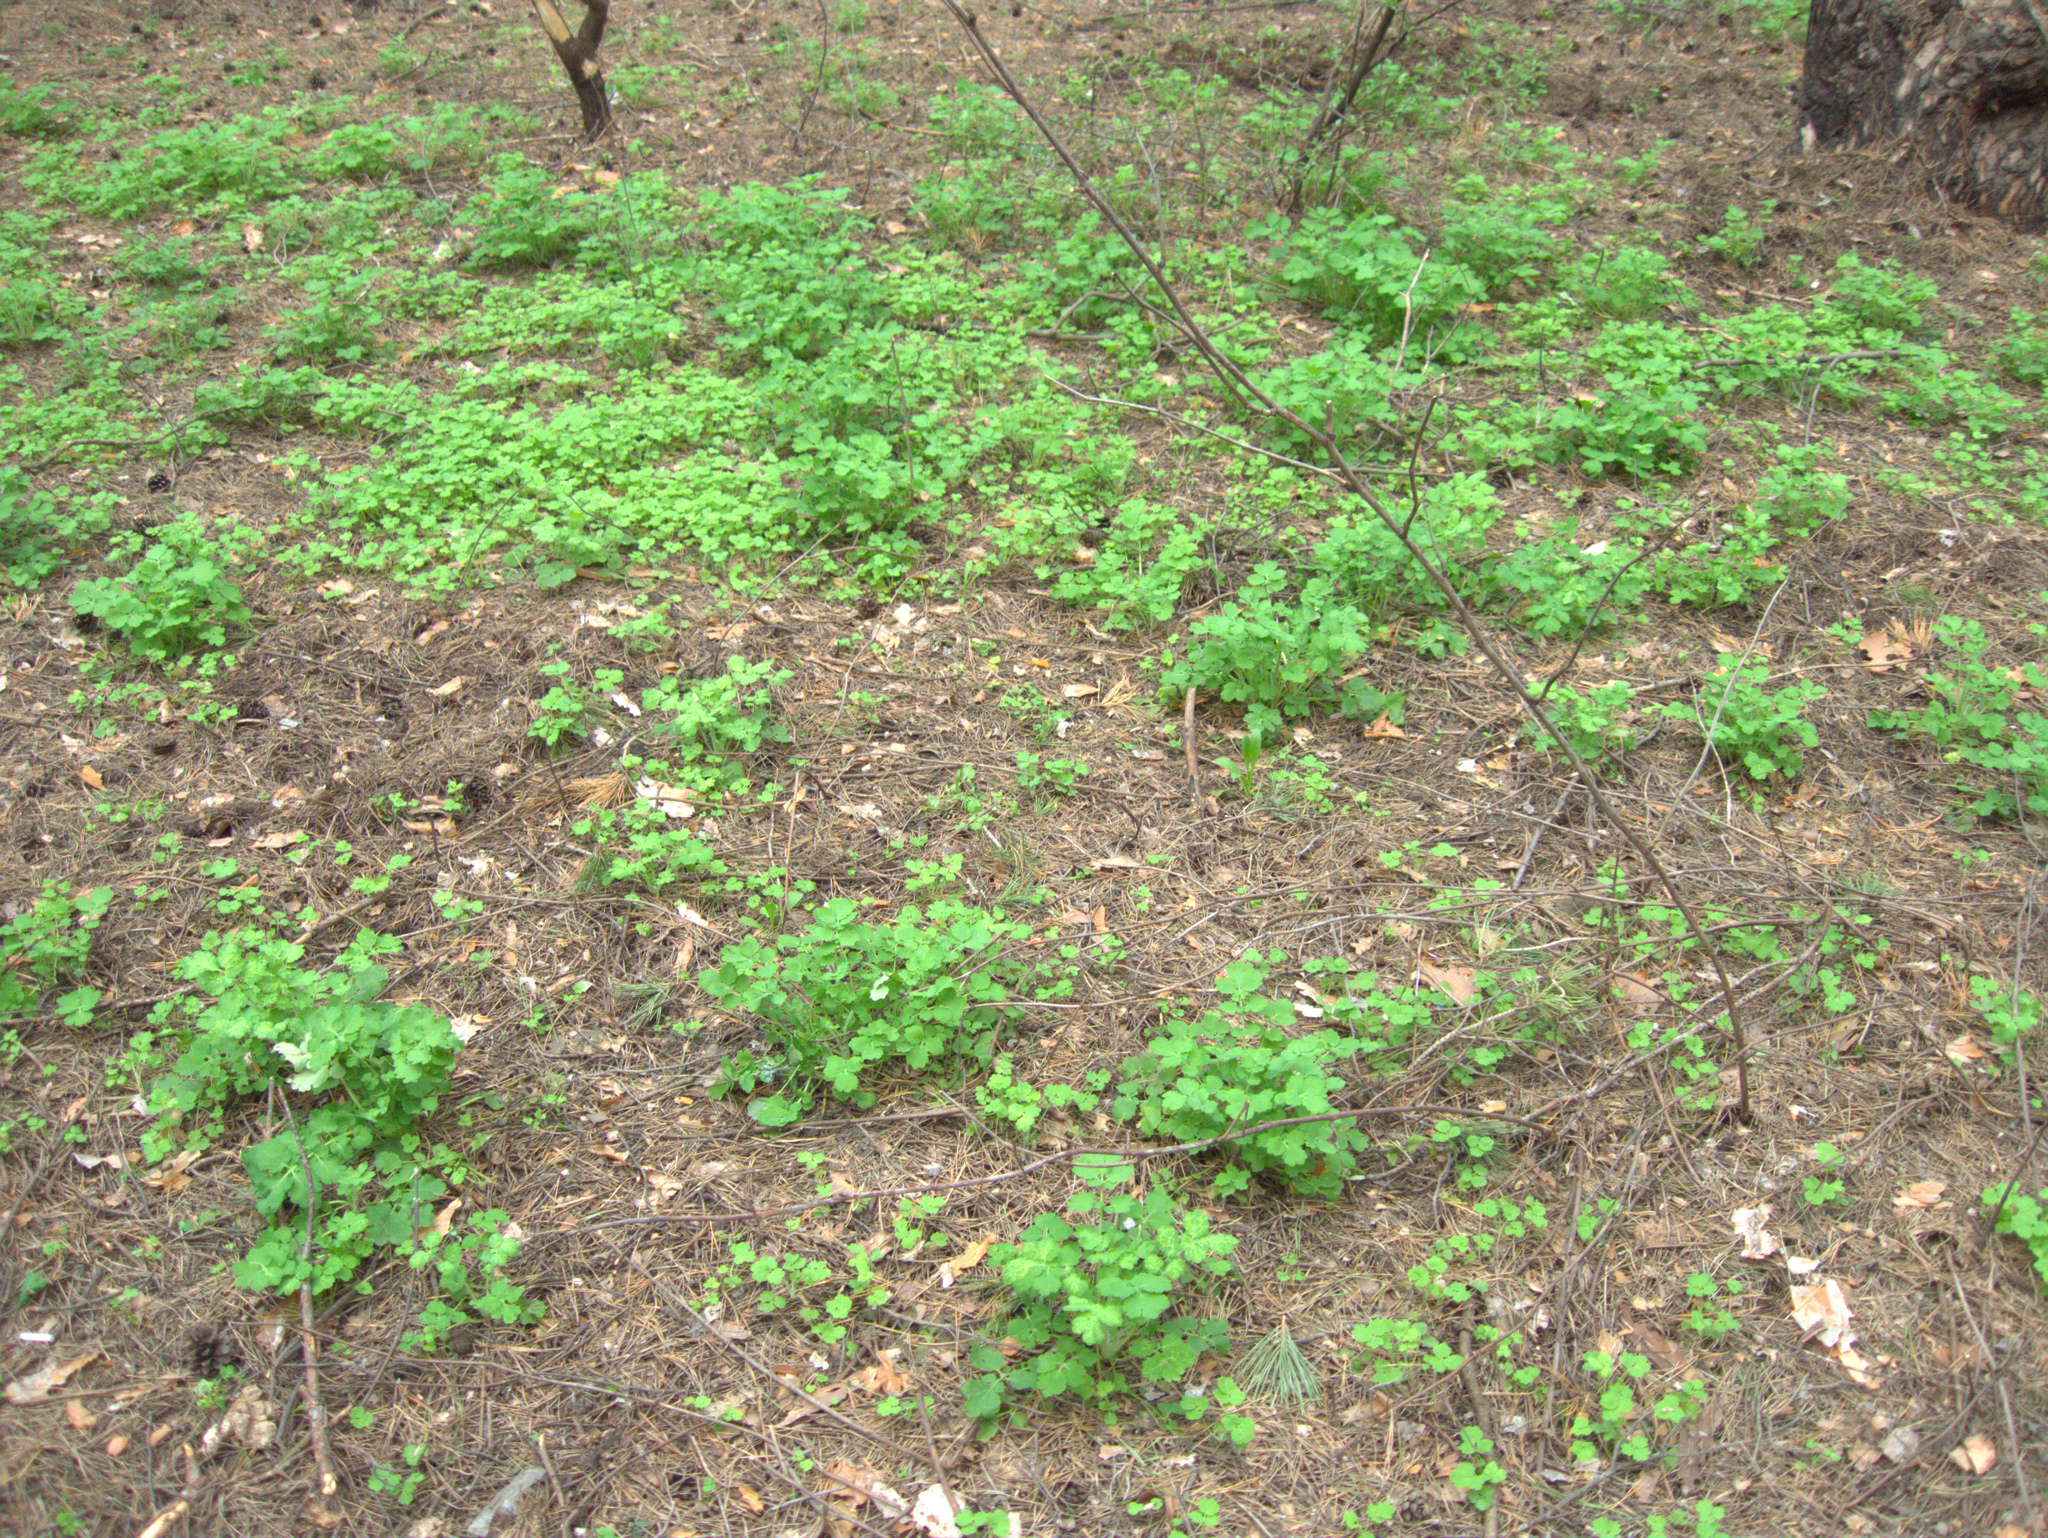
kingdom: Plantae
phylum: Tracheophyta
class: Magnoliopsida
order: Ranunculales
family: Papaveraceae
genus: Chelidonium
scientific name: Chelidonium majus
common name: Greater celandine
